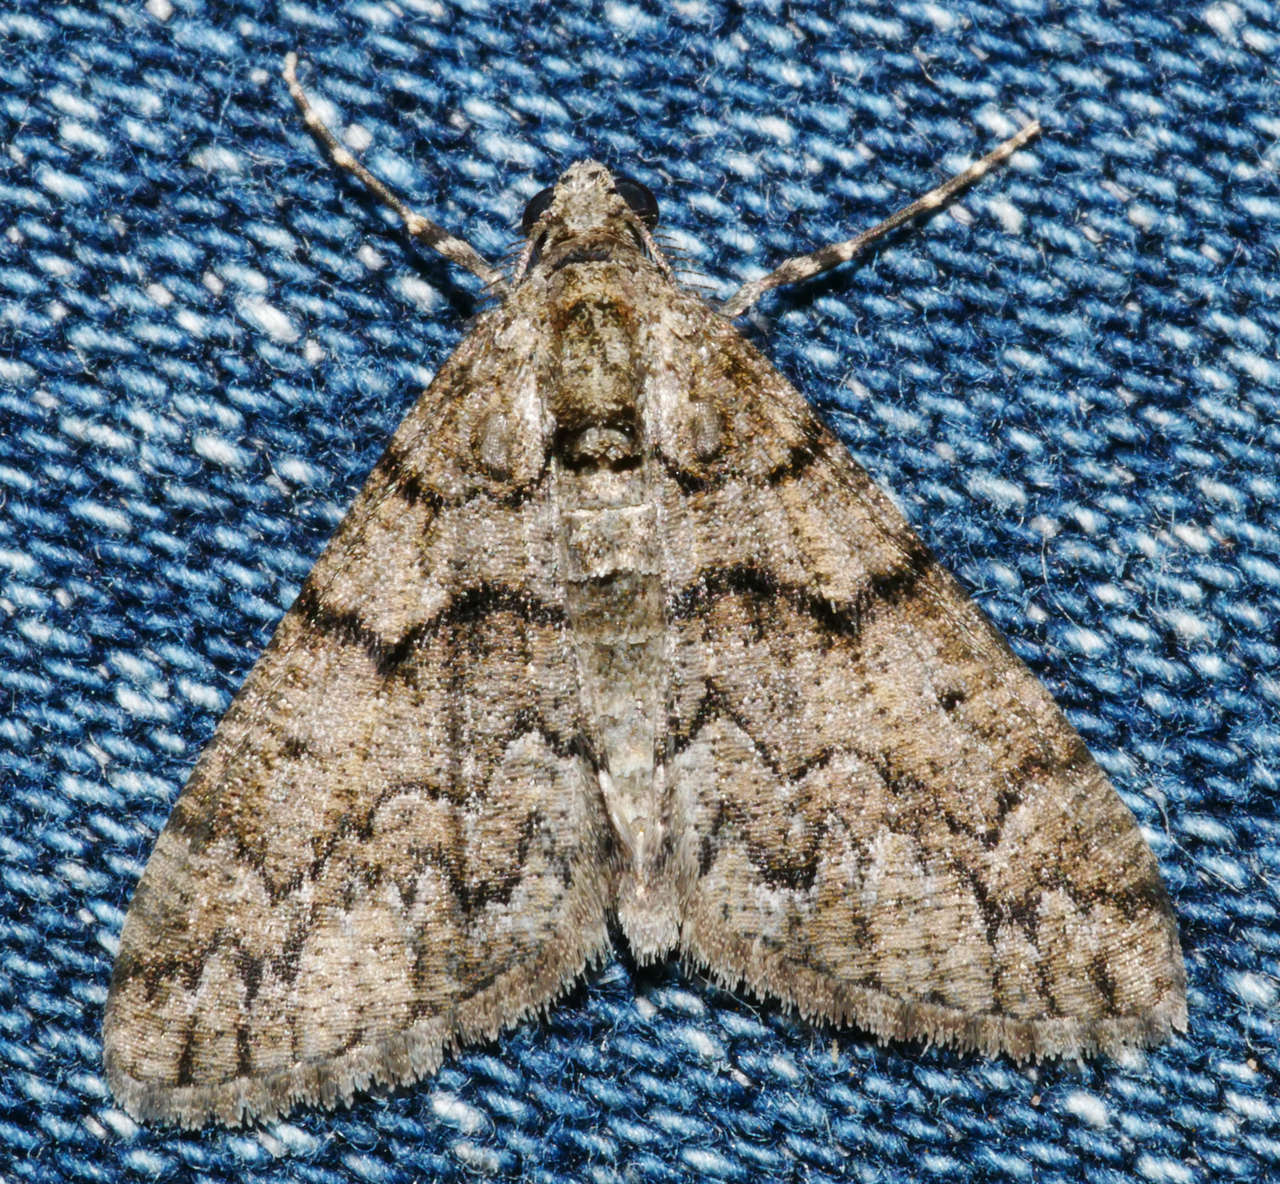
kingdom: Animalia
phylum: Arthropoda
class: Insecta
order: Lepidoptera
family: Geometridae
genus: Lipogya
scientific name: Lipogya exprimataria
